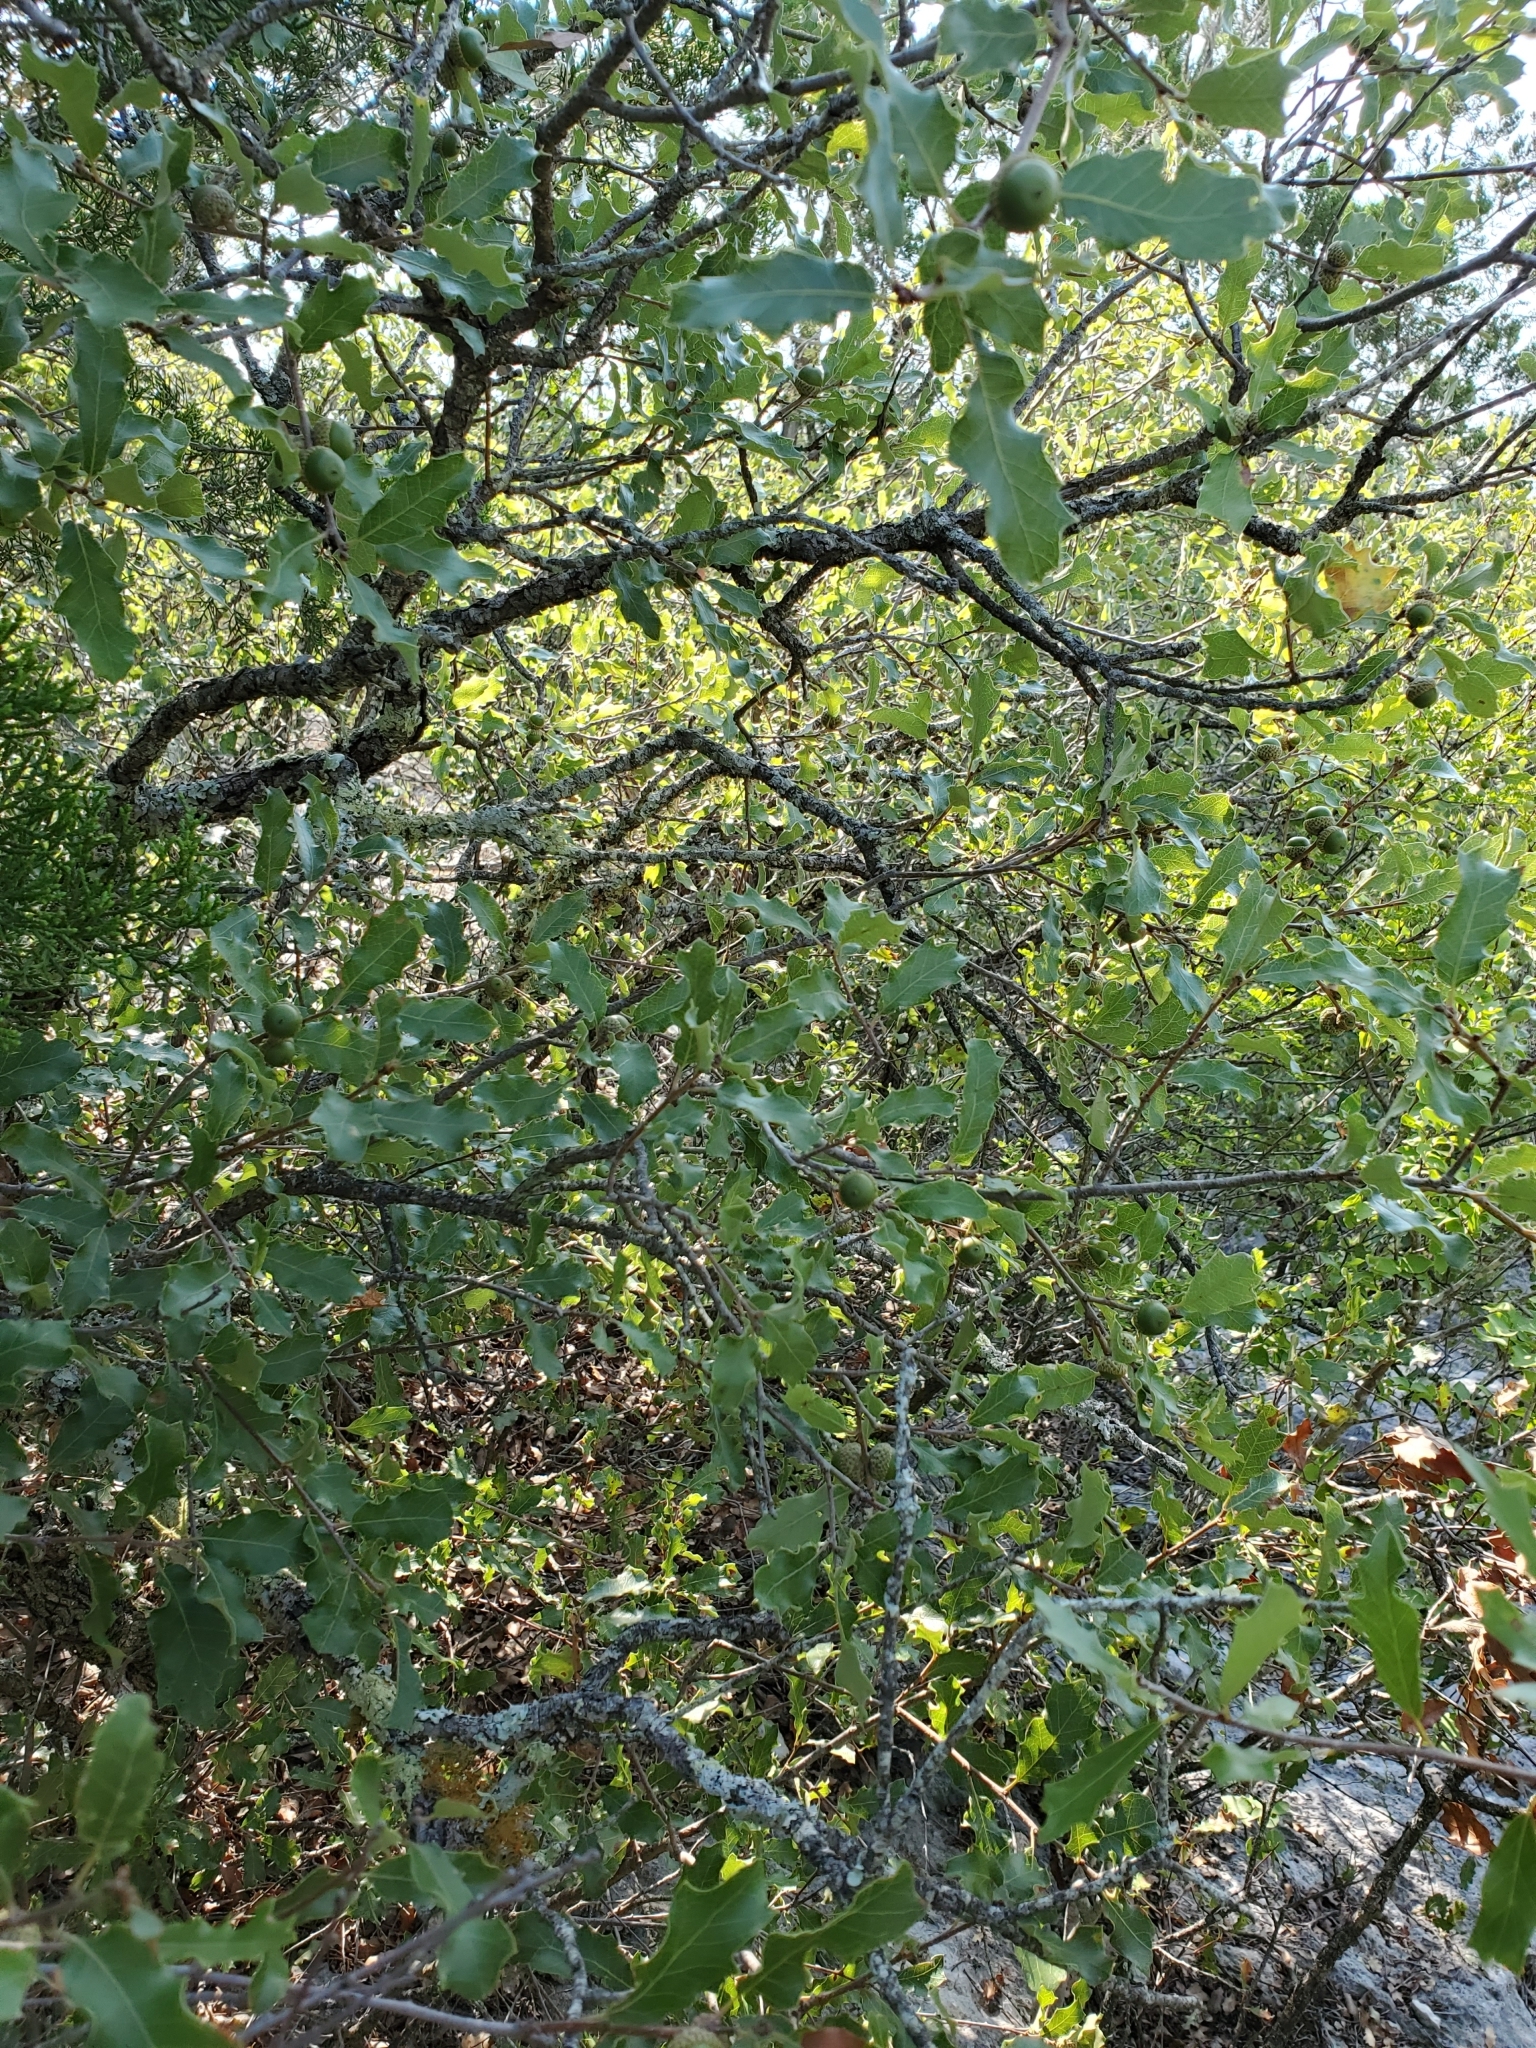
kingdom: Plantae
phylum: Tracheophyta
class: Magnoliopsida
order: Fagales
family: Fagaceae
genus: Quercus
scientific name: Quercus vaseyana
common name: Sandpaper oak
